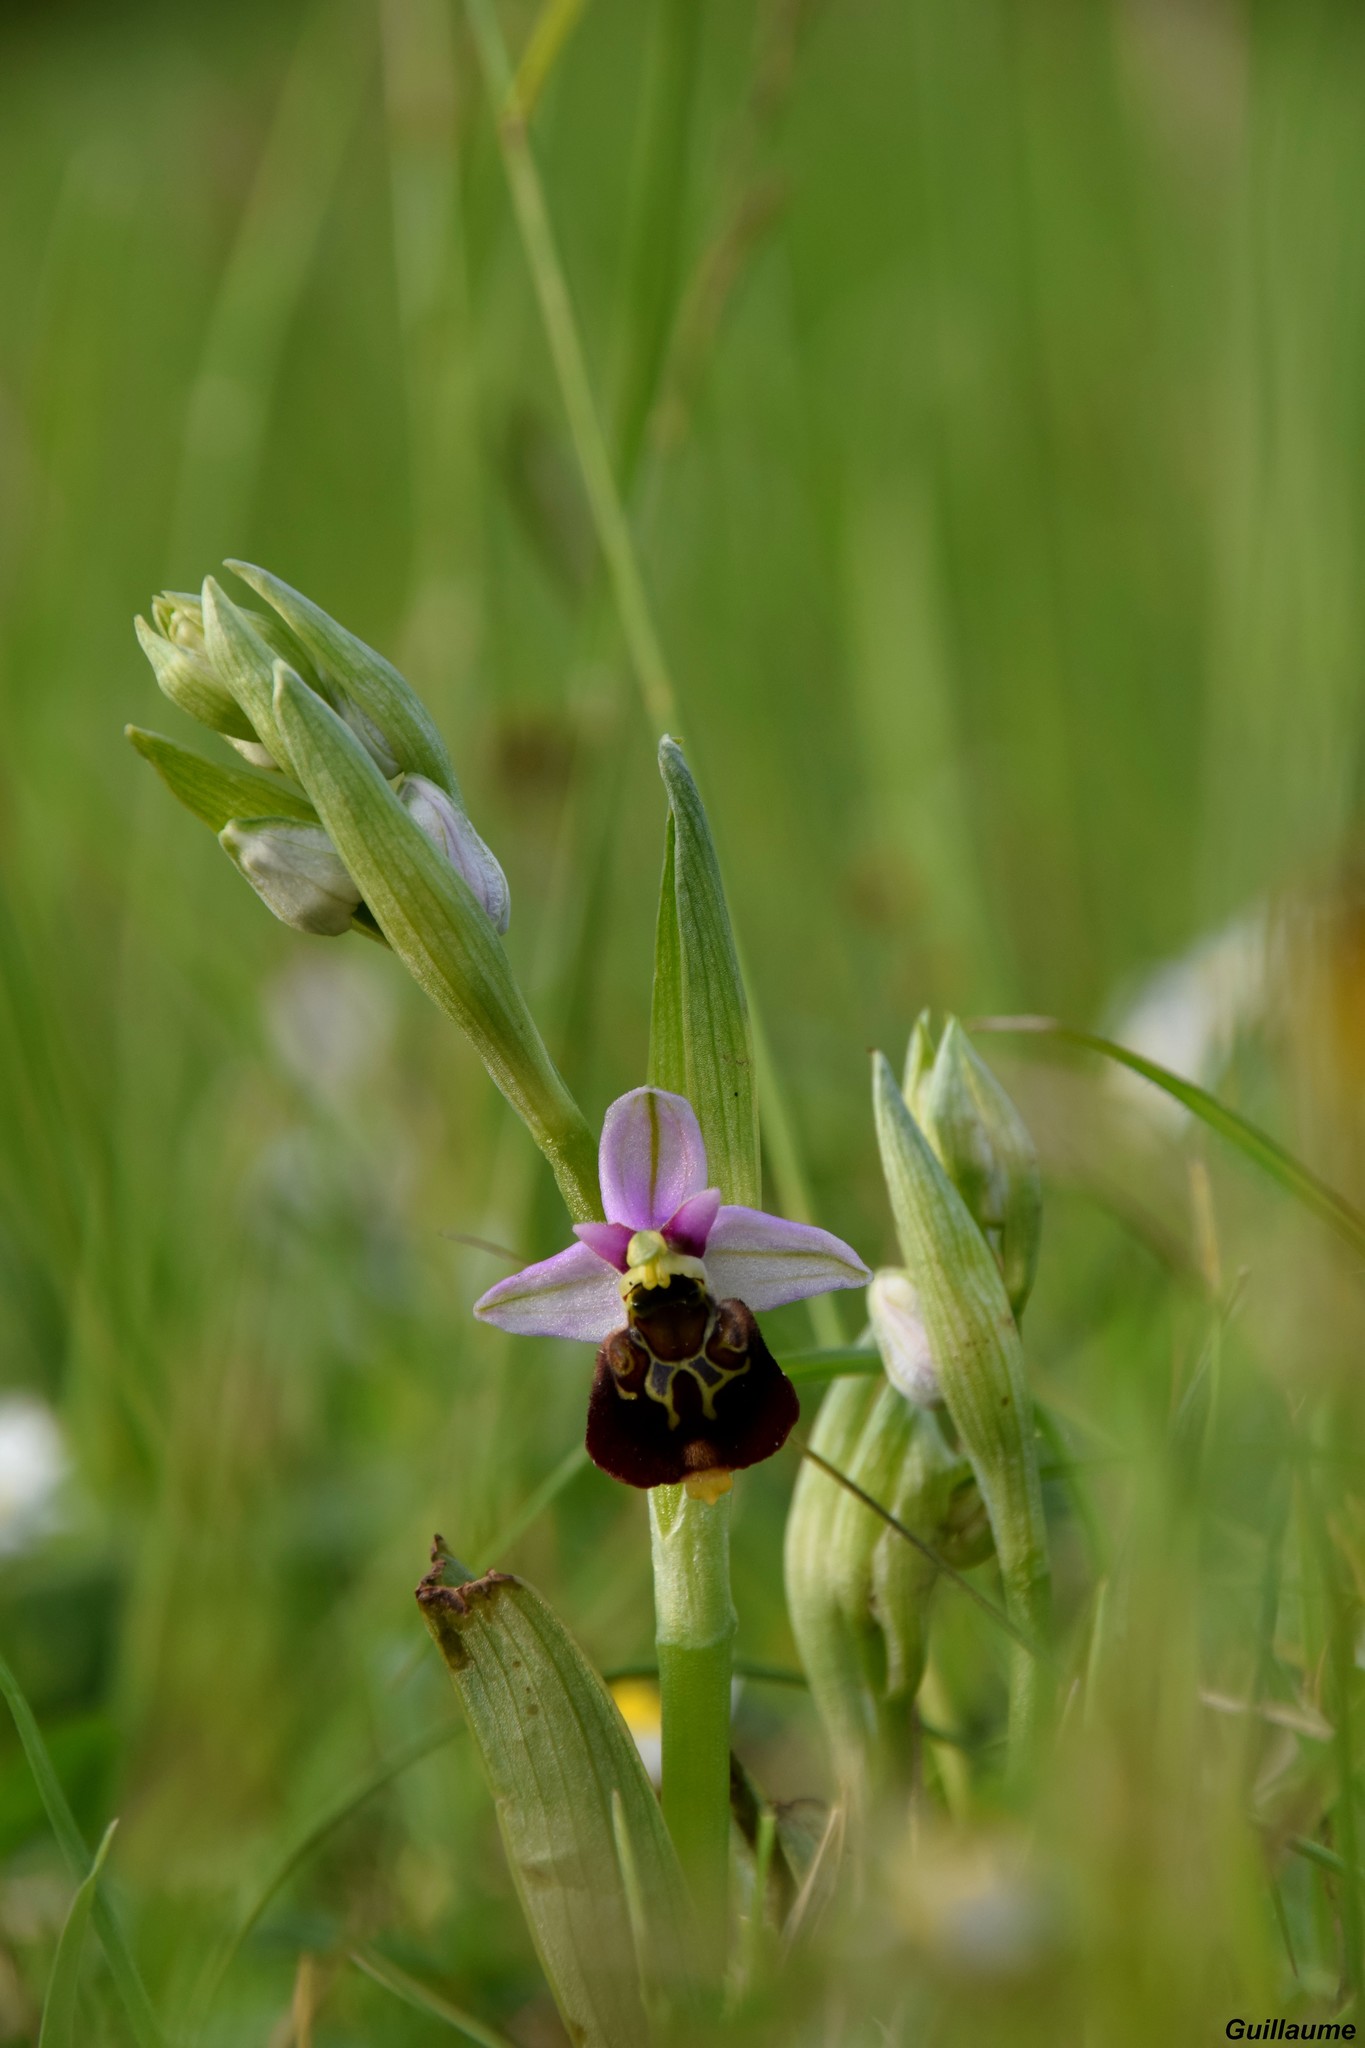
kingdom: Plantae
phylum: Tracheophyta
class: Liliopsida
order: Asparagales
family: Orchidaceae
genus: Ophrys
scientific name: Ophrys holosericea
